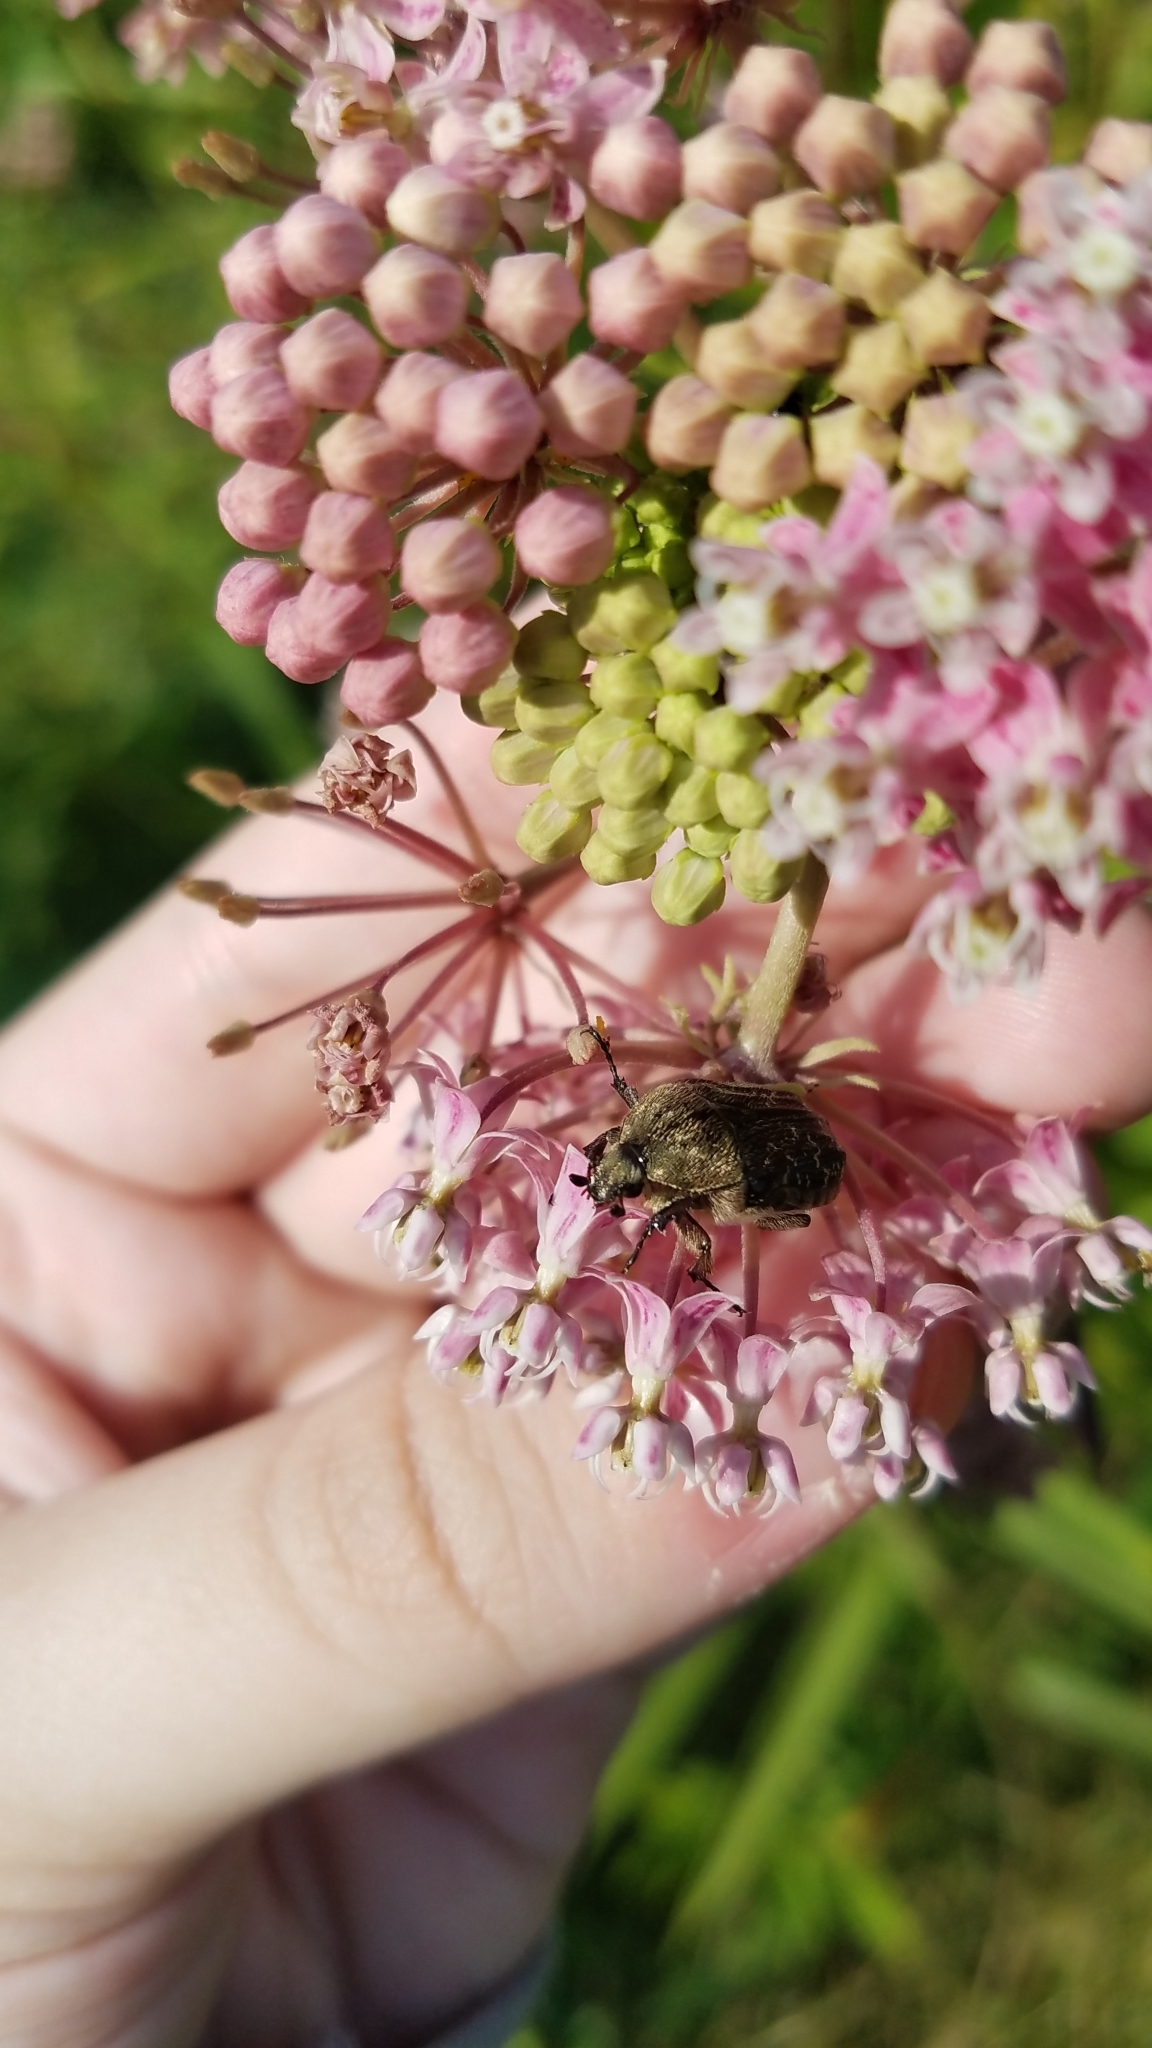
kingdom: Animalia
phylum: Arthropoda
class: Insecta
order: Coleoptera
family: Scarabaeidae
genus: Euphoria
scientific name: Euphoria sepulcralis
